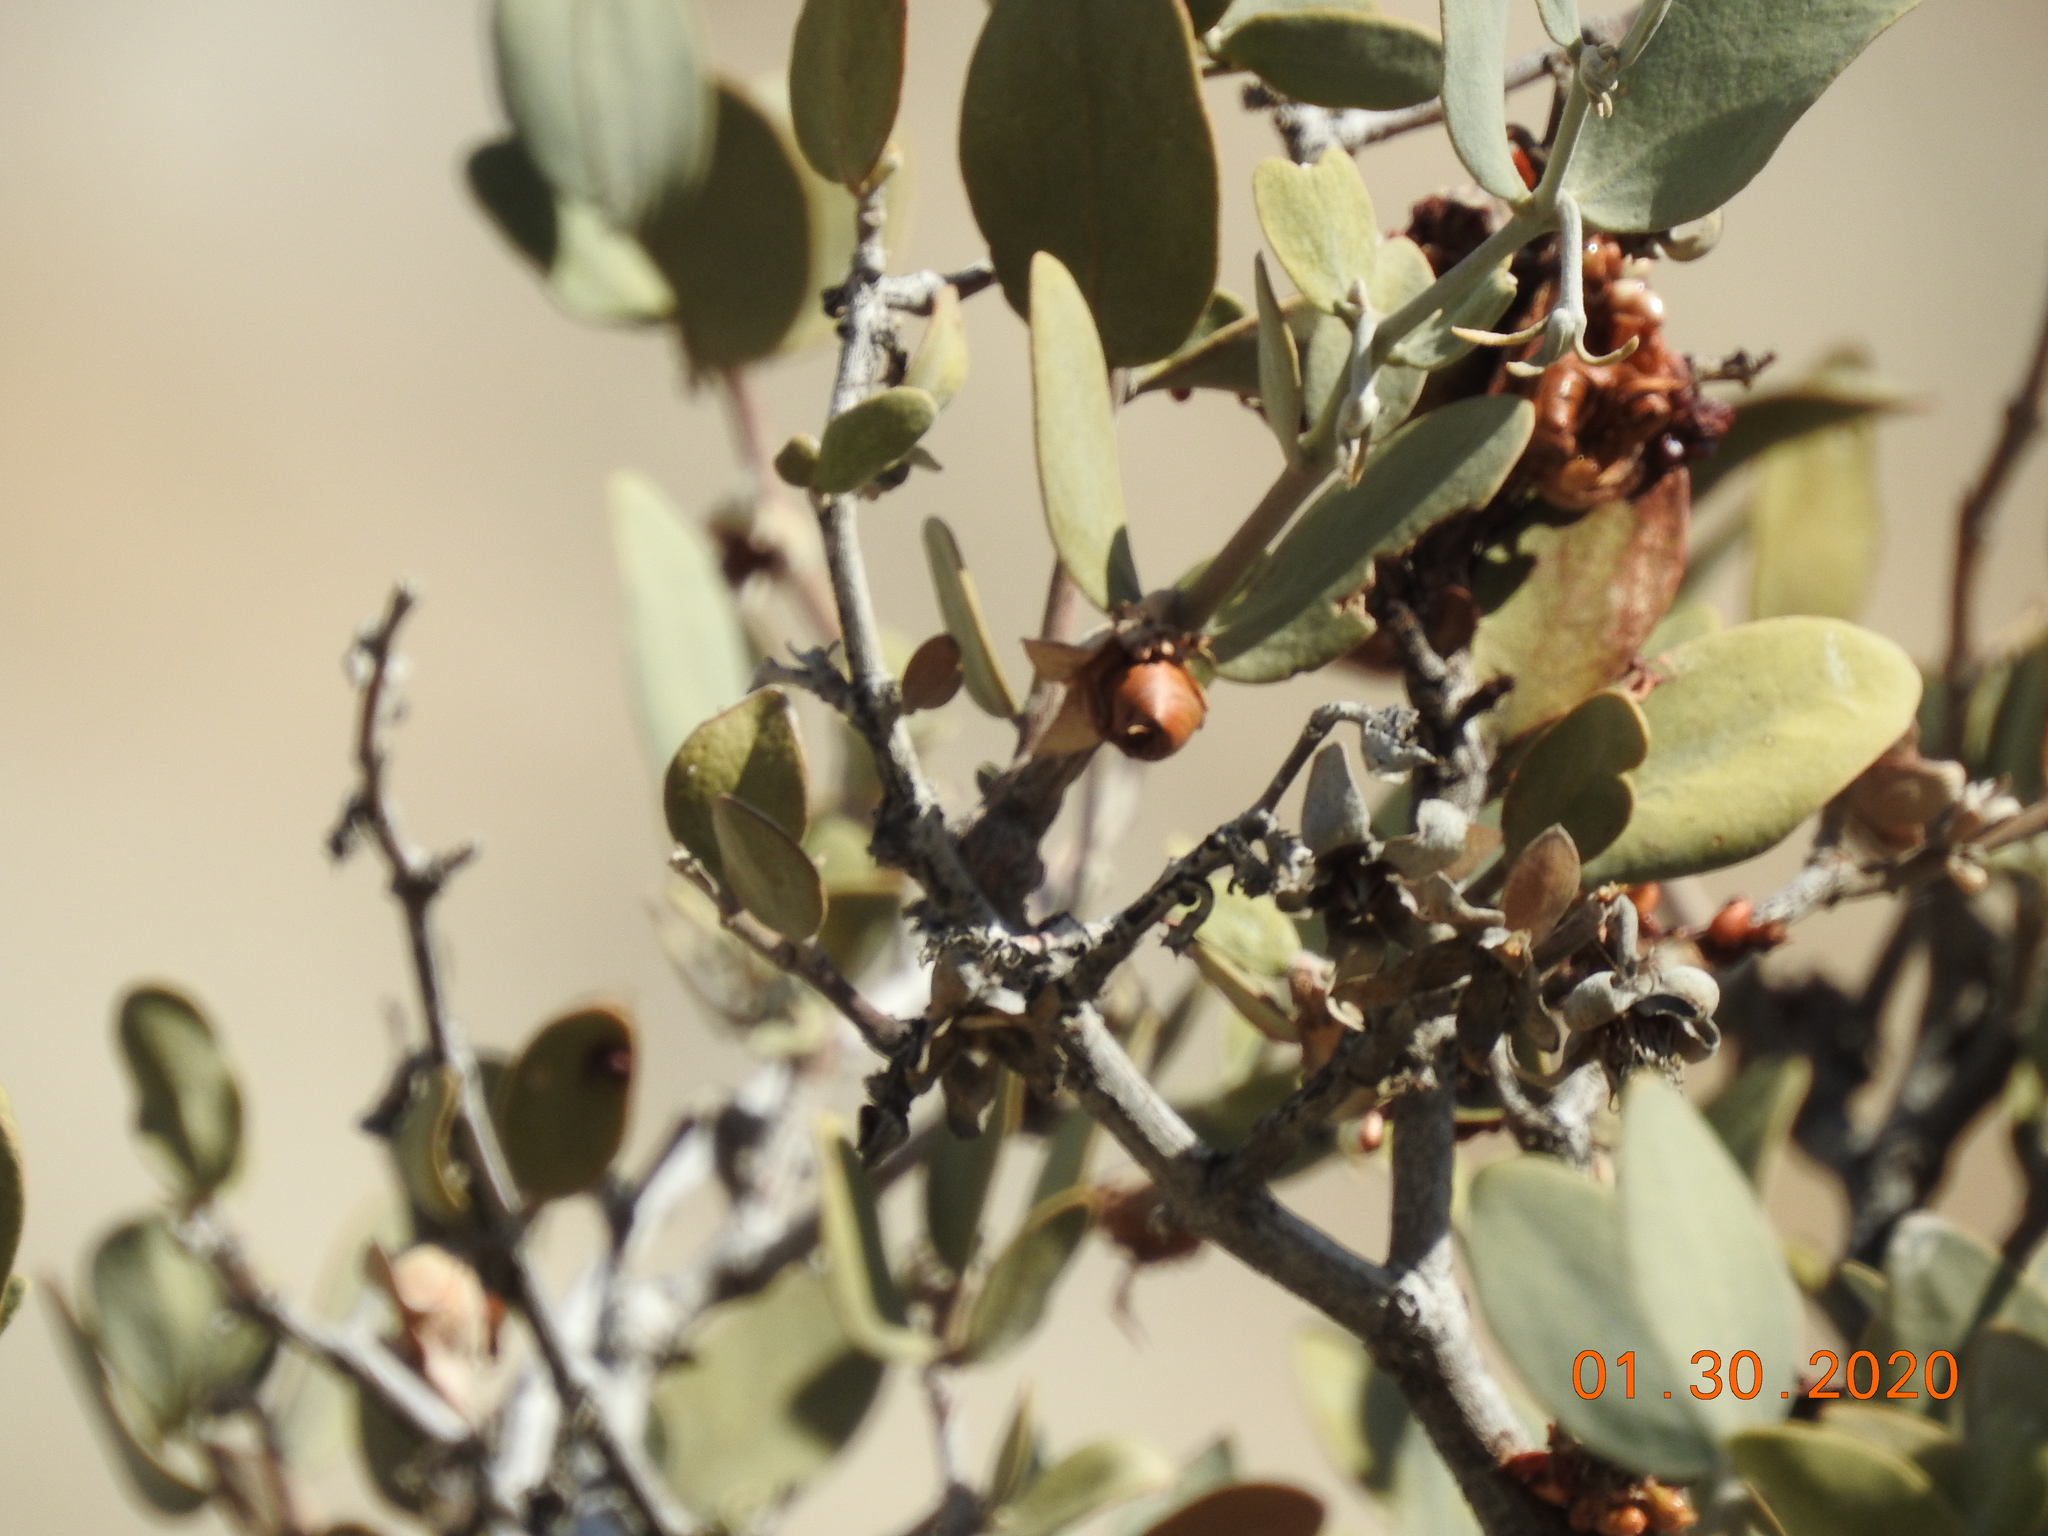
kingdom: Plantae
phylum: Tracheophyta
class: Magnoliopsida
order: Caryophyllales
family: Simmondsiaceae
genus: Simmondsia
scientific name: Simmondsia chinensis
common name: Jojoba
